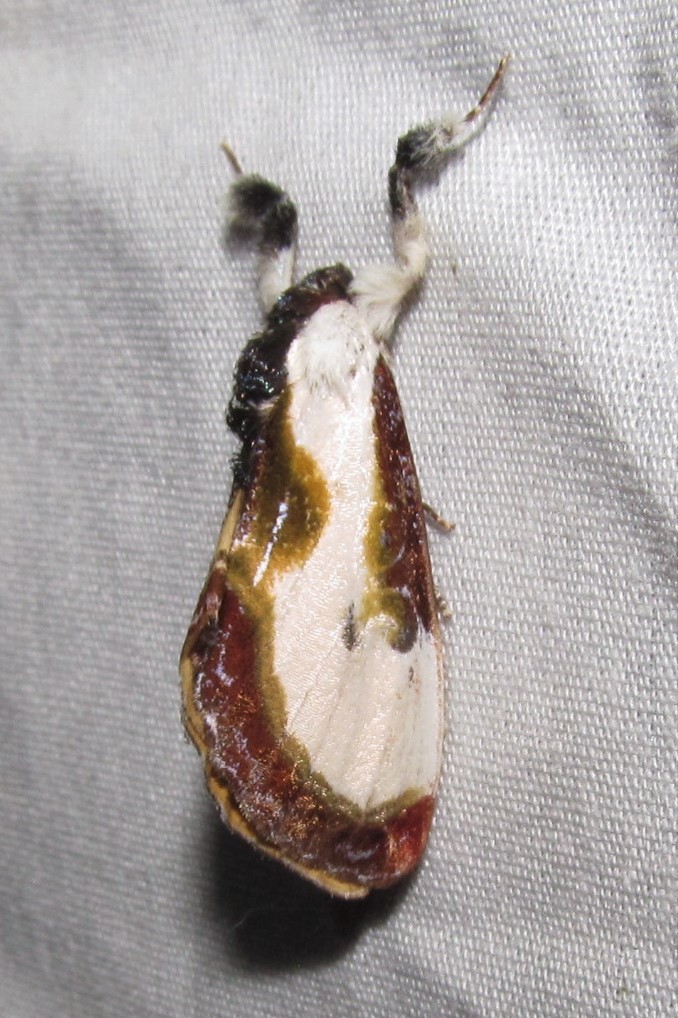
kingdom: Animalia
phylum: Arthropoda
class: Insecta
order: Lepidoptera
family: Noctuidae
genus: Eudryas
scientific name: Eudryas grata
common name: Beautiful wood-nymph
